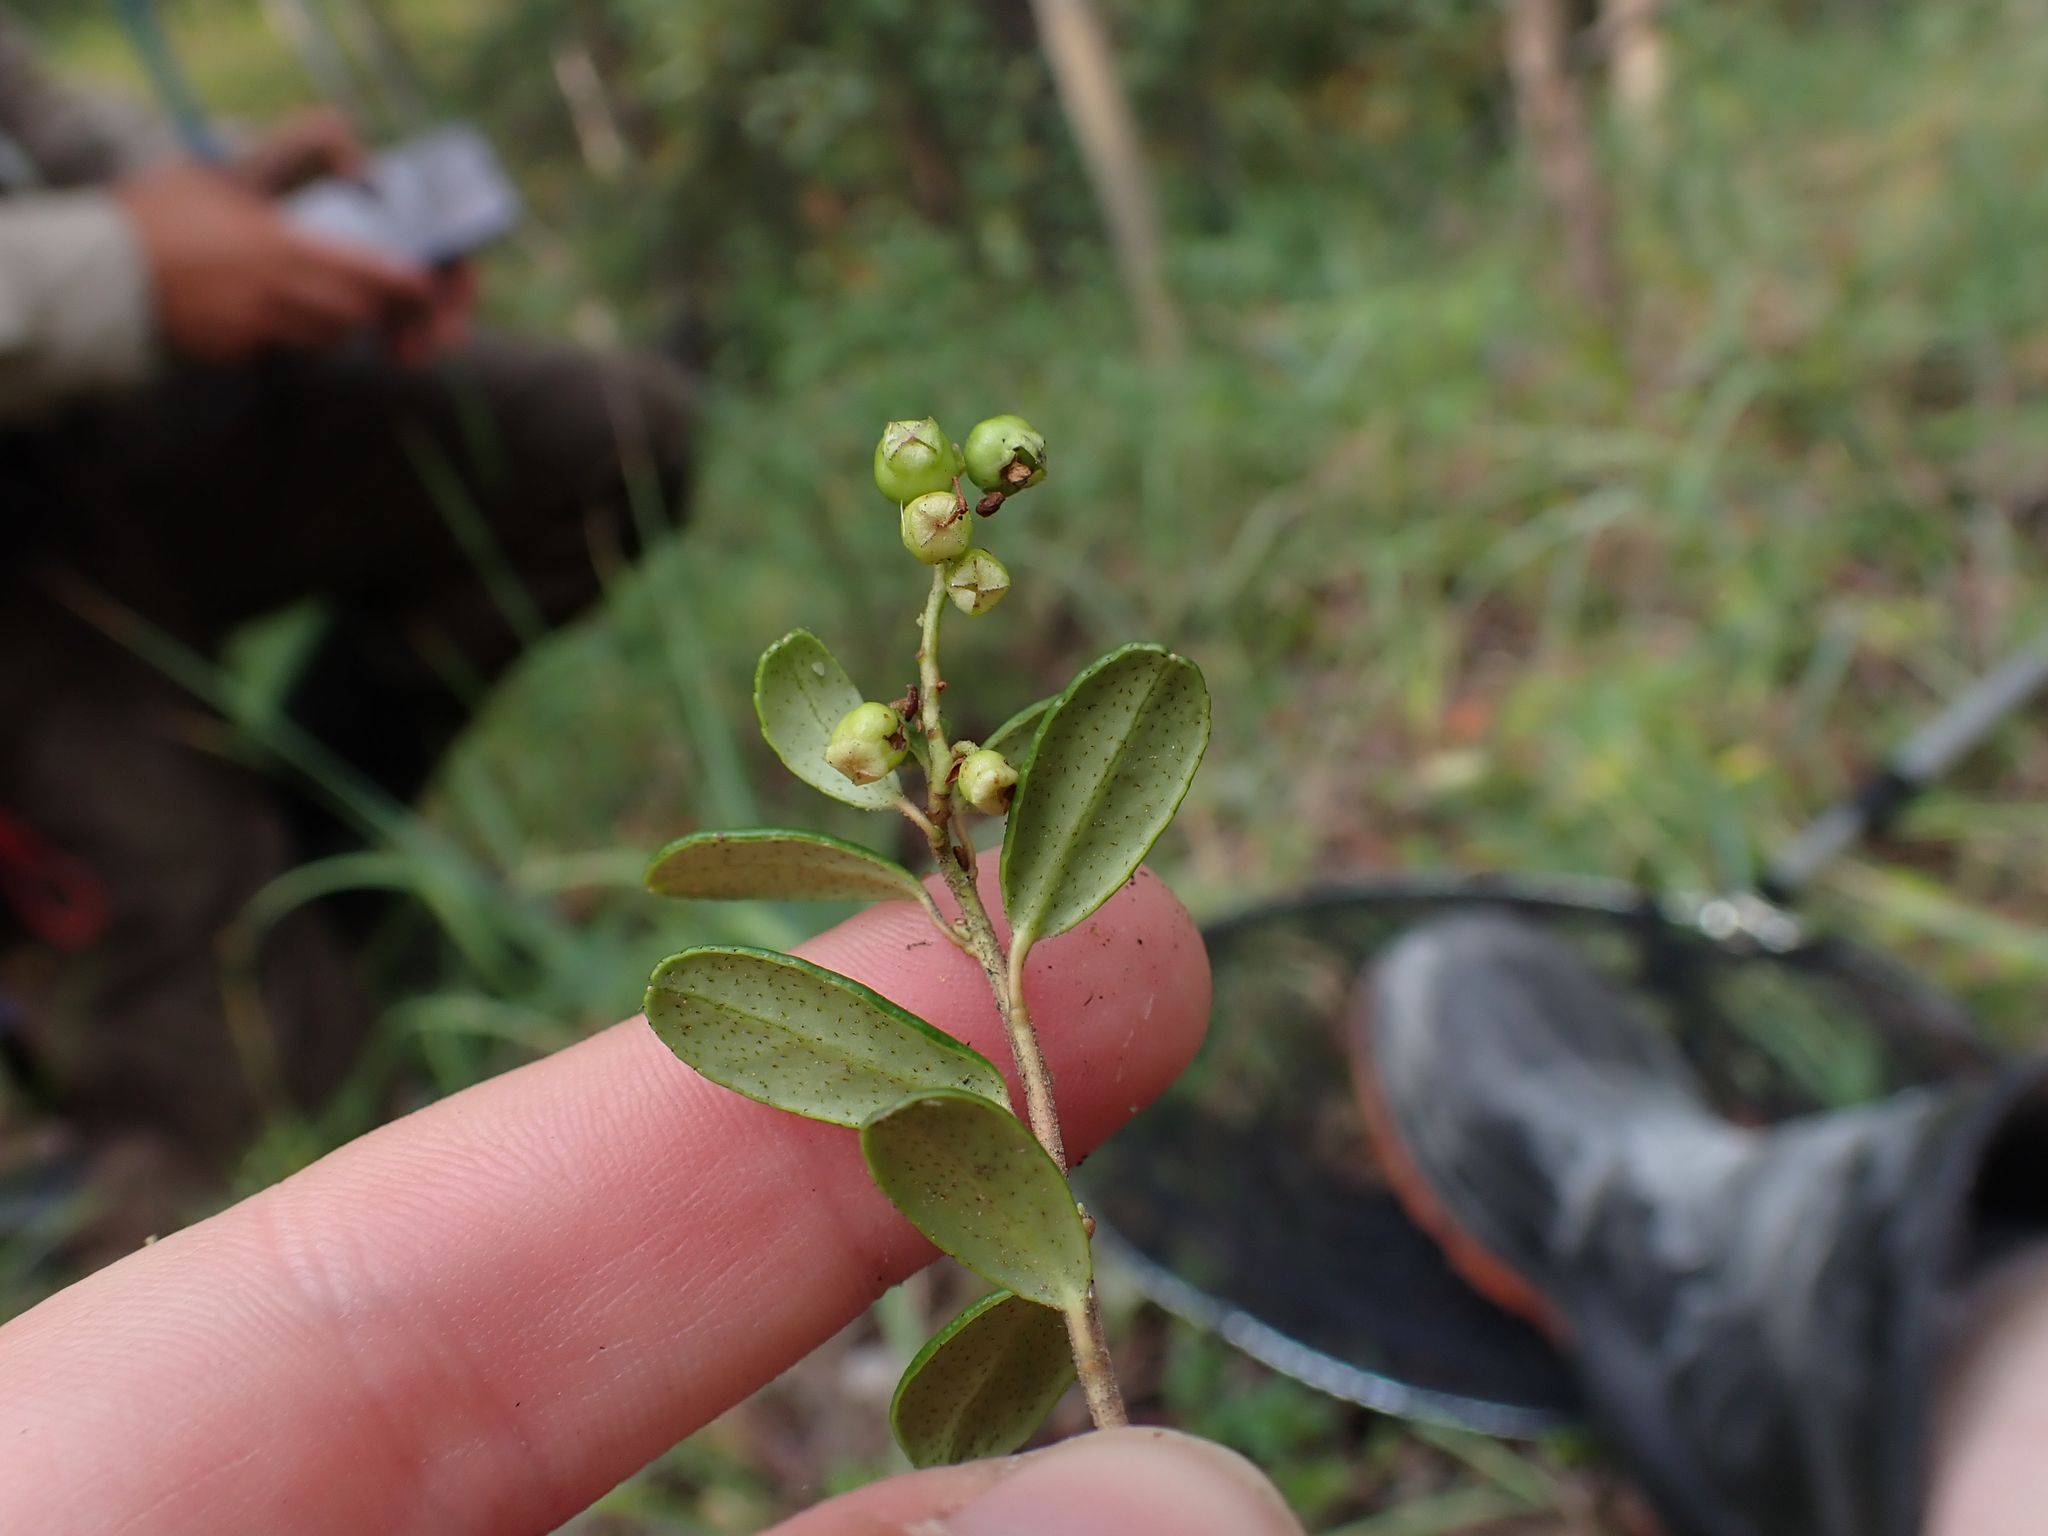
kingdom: Plantae
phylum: Tracheophyta
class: Magnoliopsida
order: Ericales
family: Ericaceae
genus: Vaccinium
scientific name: Vaccinium vitis-idaea
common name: Cowberry
